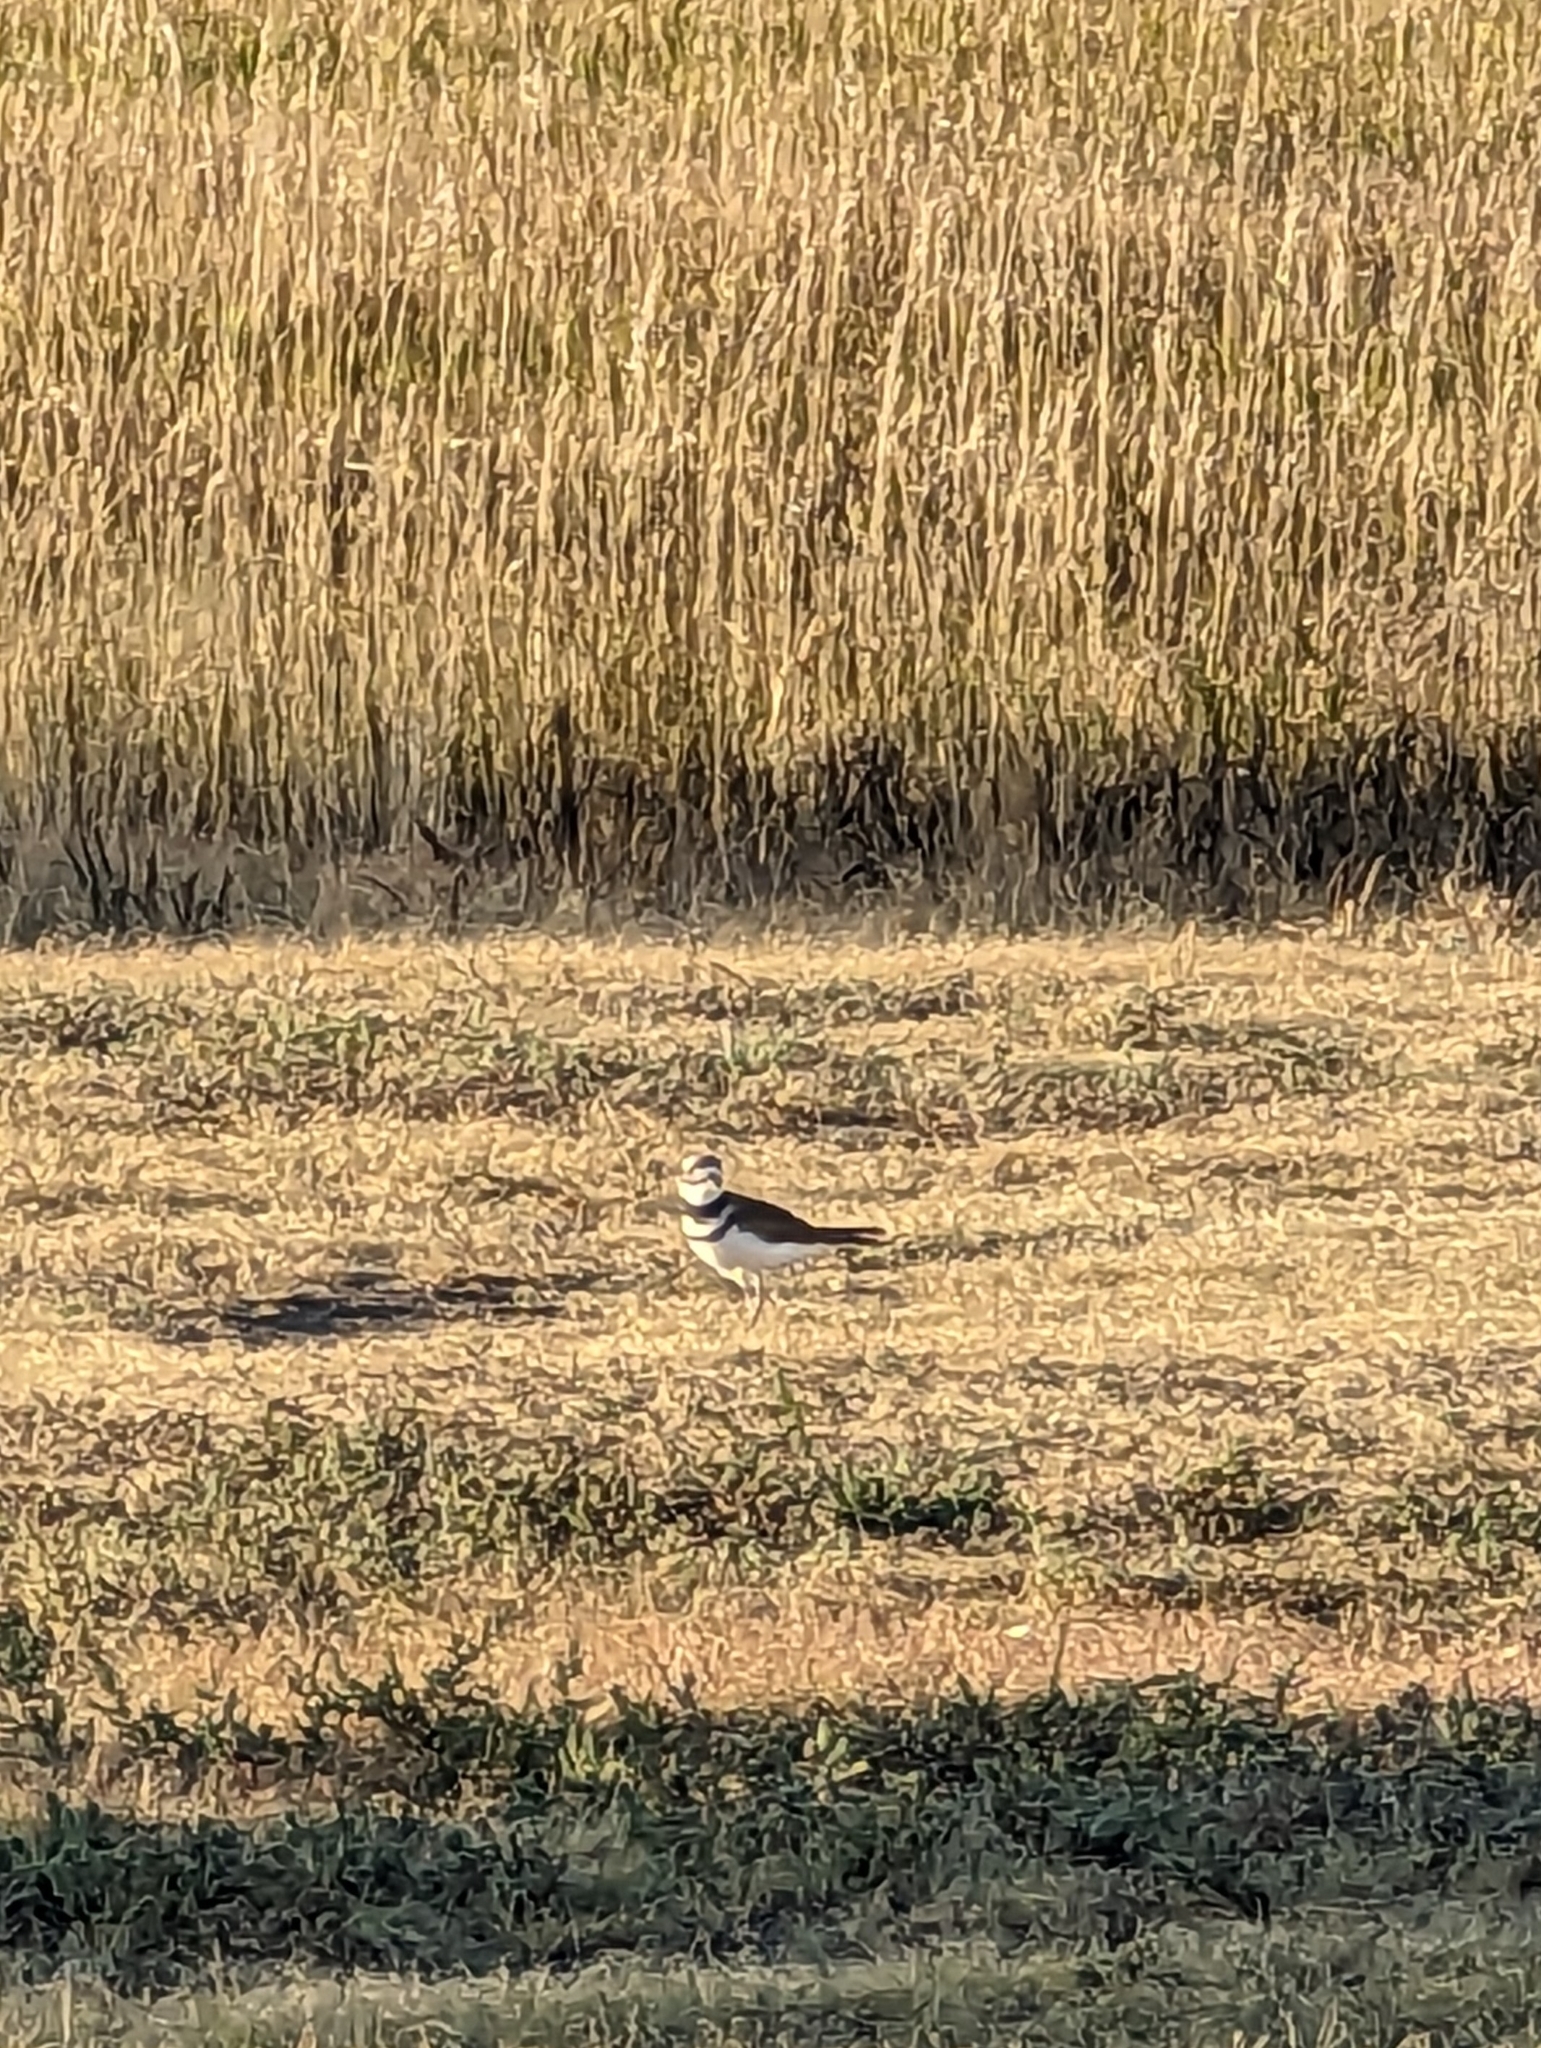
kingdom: Animalia
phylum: Chordata
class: Aves
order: Charadriiformes
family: Charadriidae
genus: Charadrius
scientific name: Charadrius vociferus
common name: Killdeer
